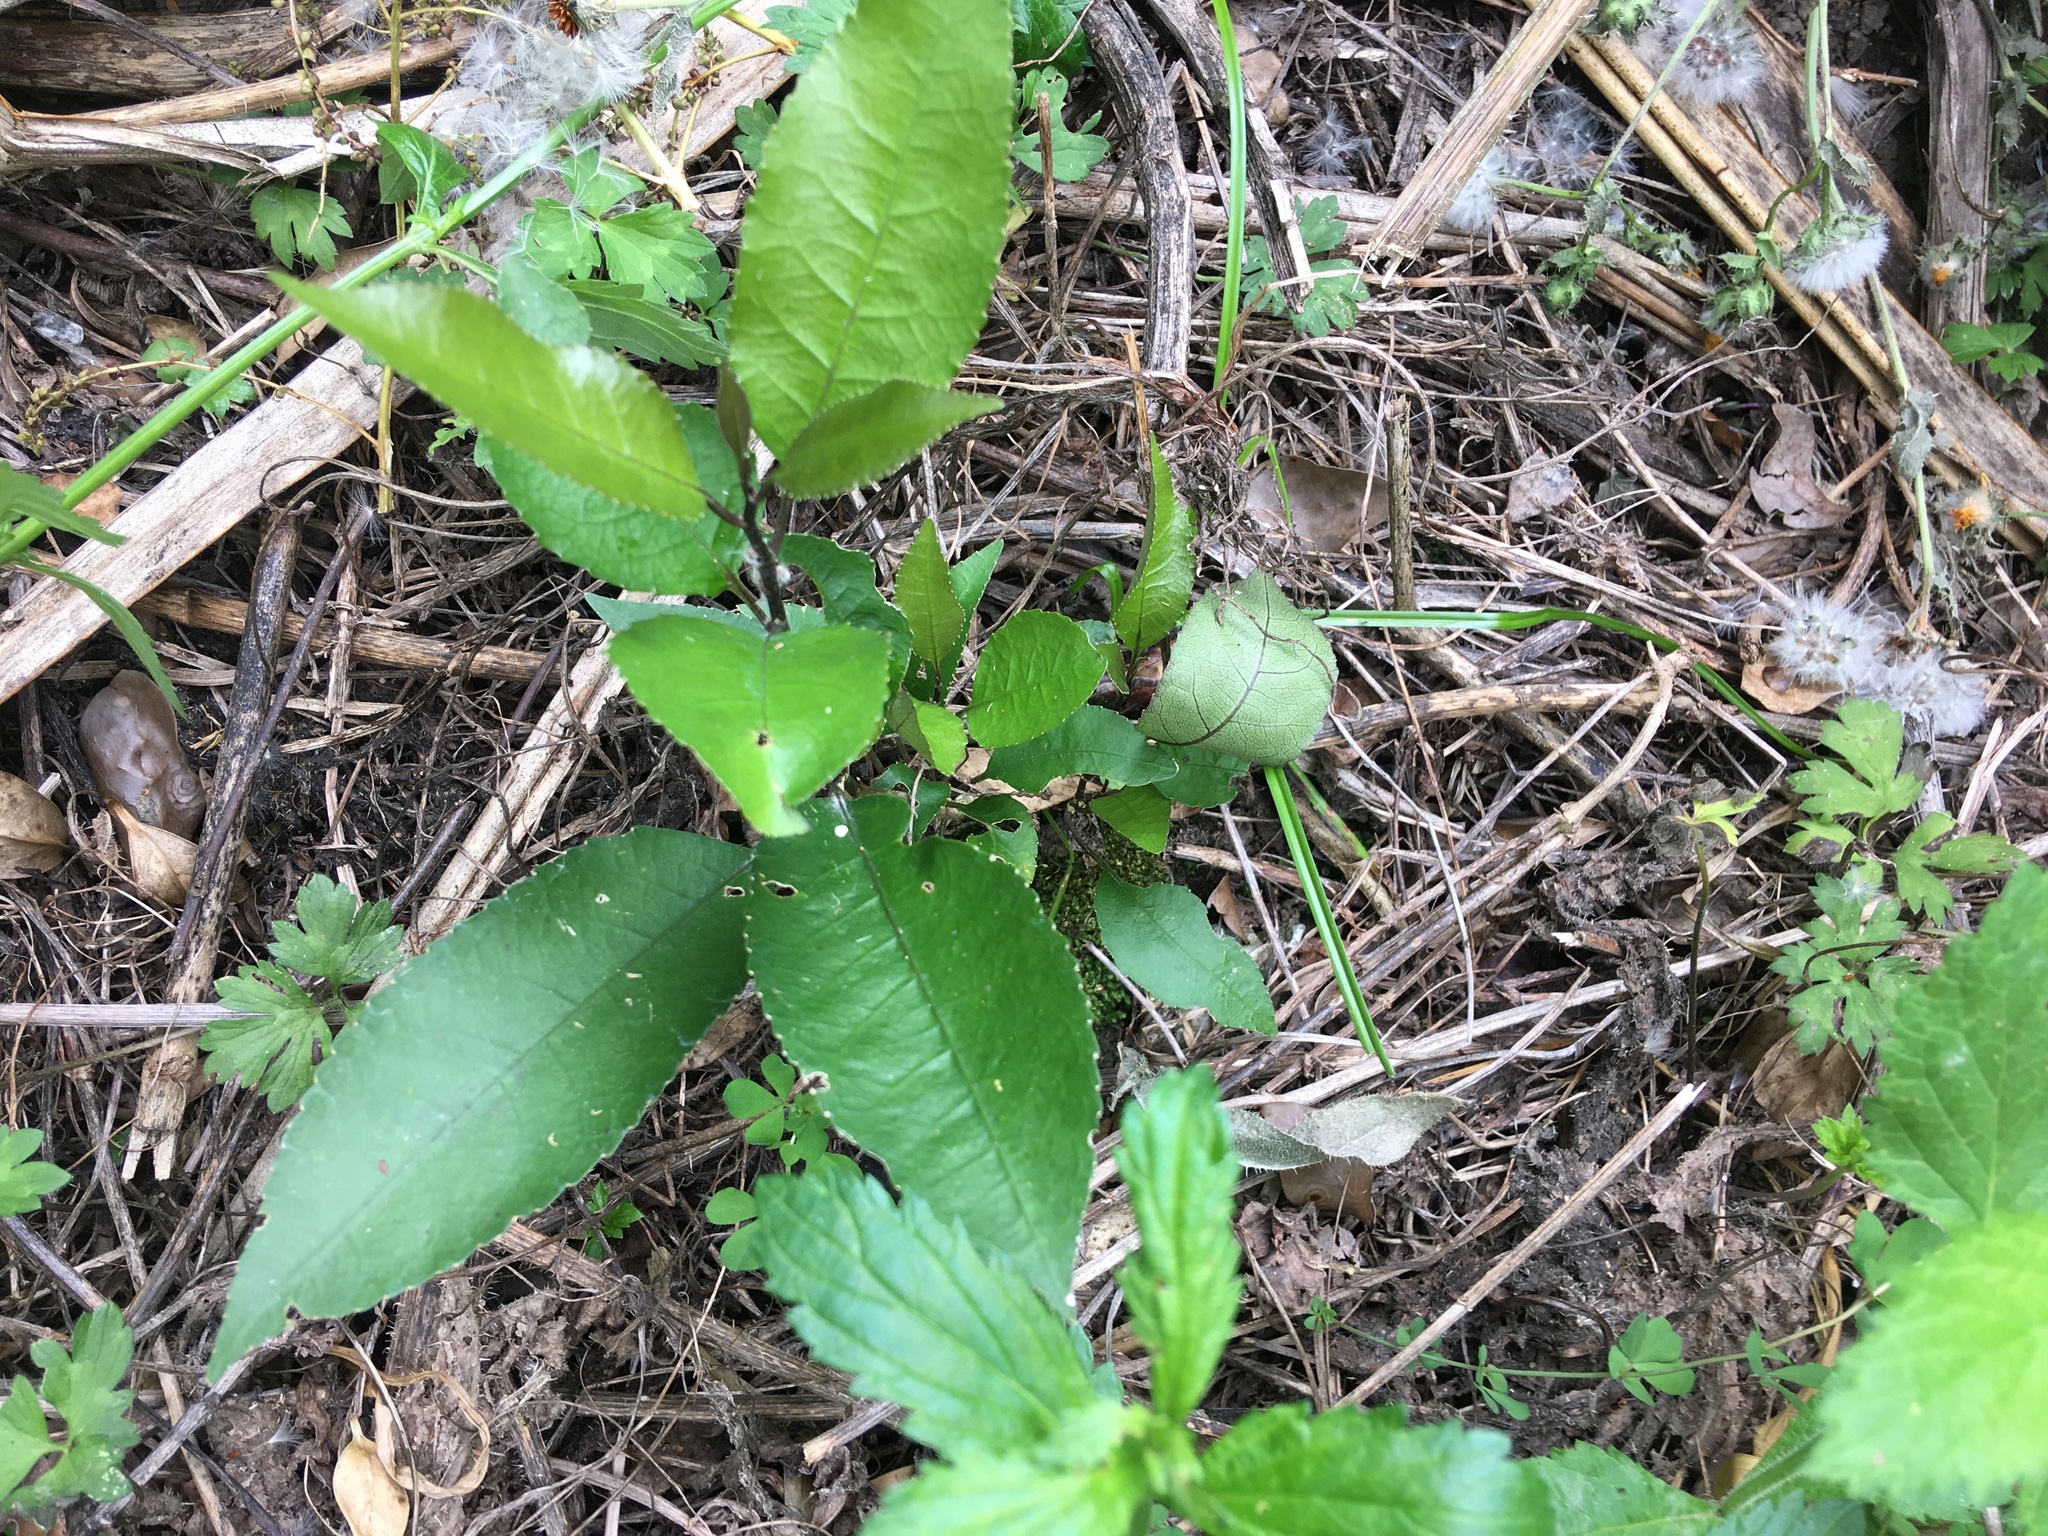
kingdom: Plantae
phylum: Tracheophyta
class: Magnoliopsida
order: Malpighiales
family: Violaceae
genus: Melicytus
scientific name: Melicytus ramiflorus
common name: Mahoe
